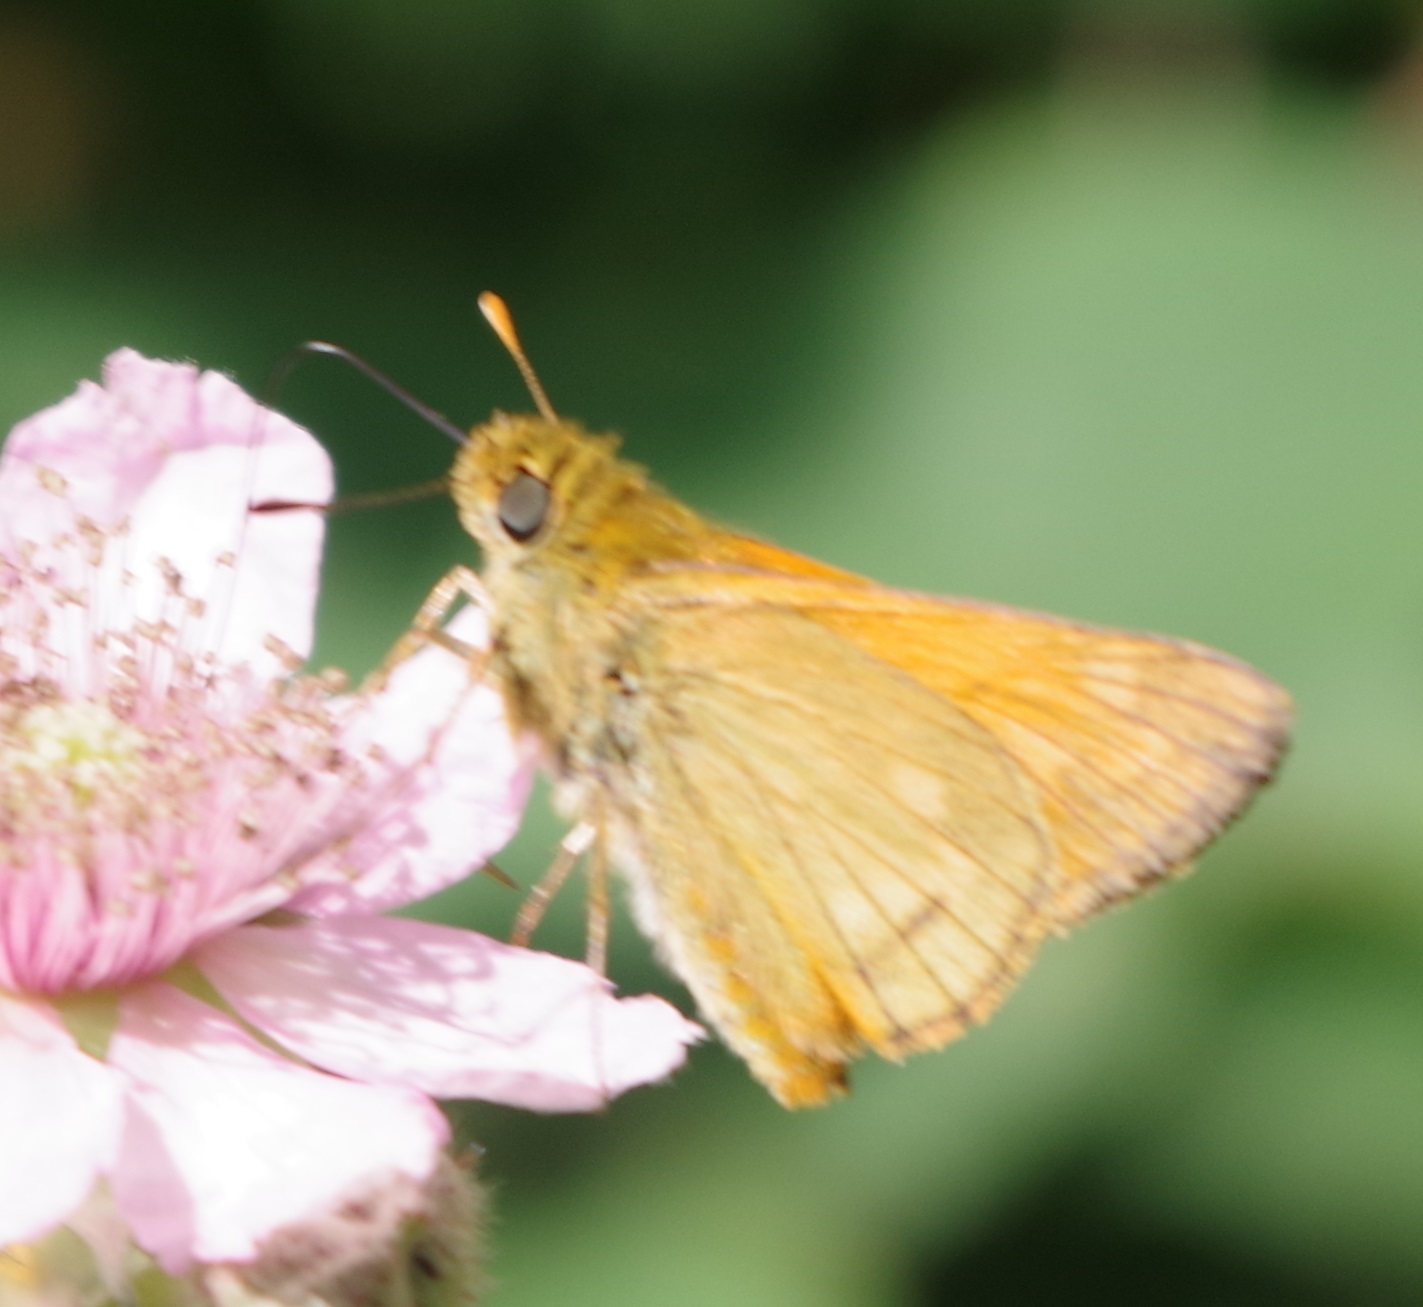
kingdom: Animalia
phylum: Arthropoda
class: Insecta
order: Lepidoptera
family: Hesperiidae
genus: Ochlodes
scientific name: Ochlodes venata
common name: Large skipper
